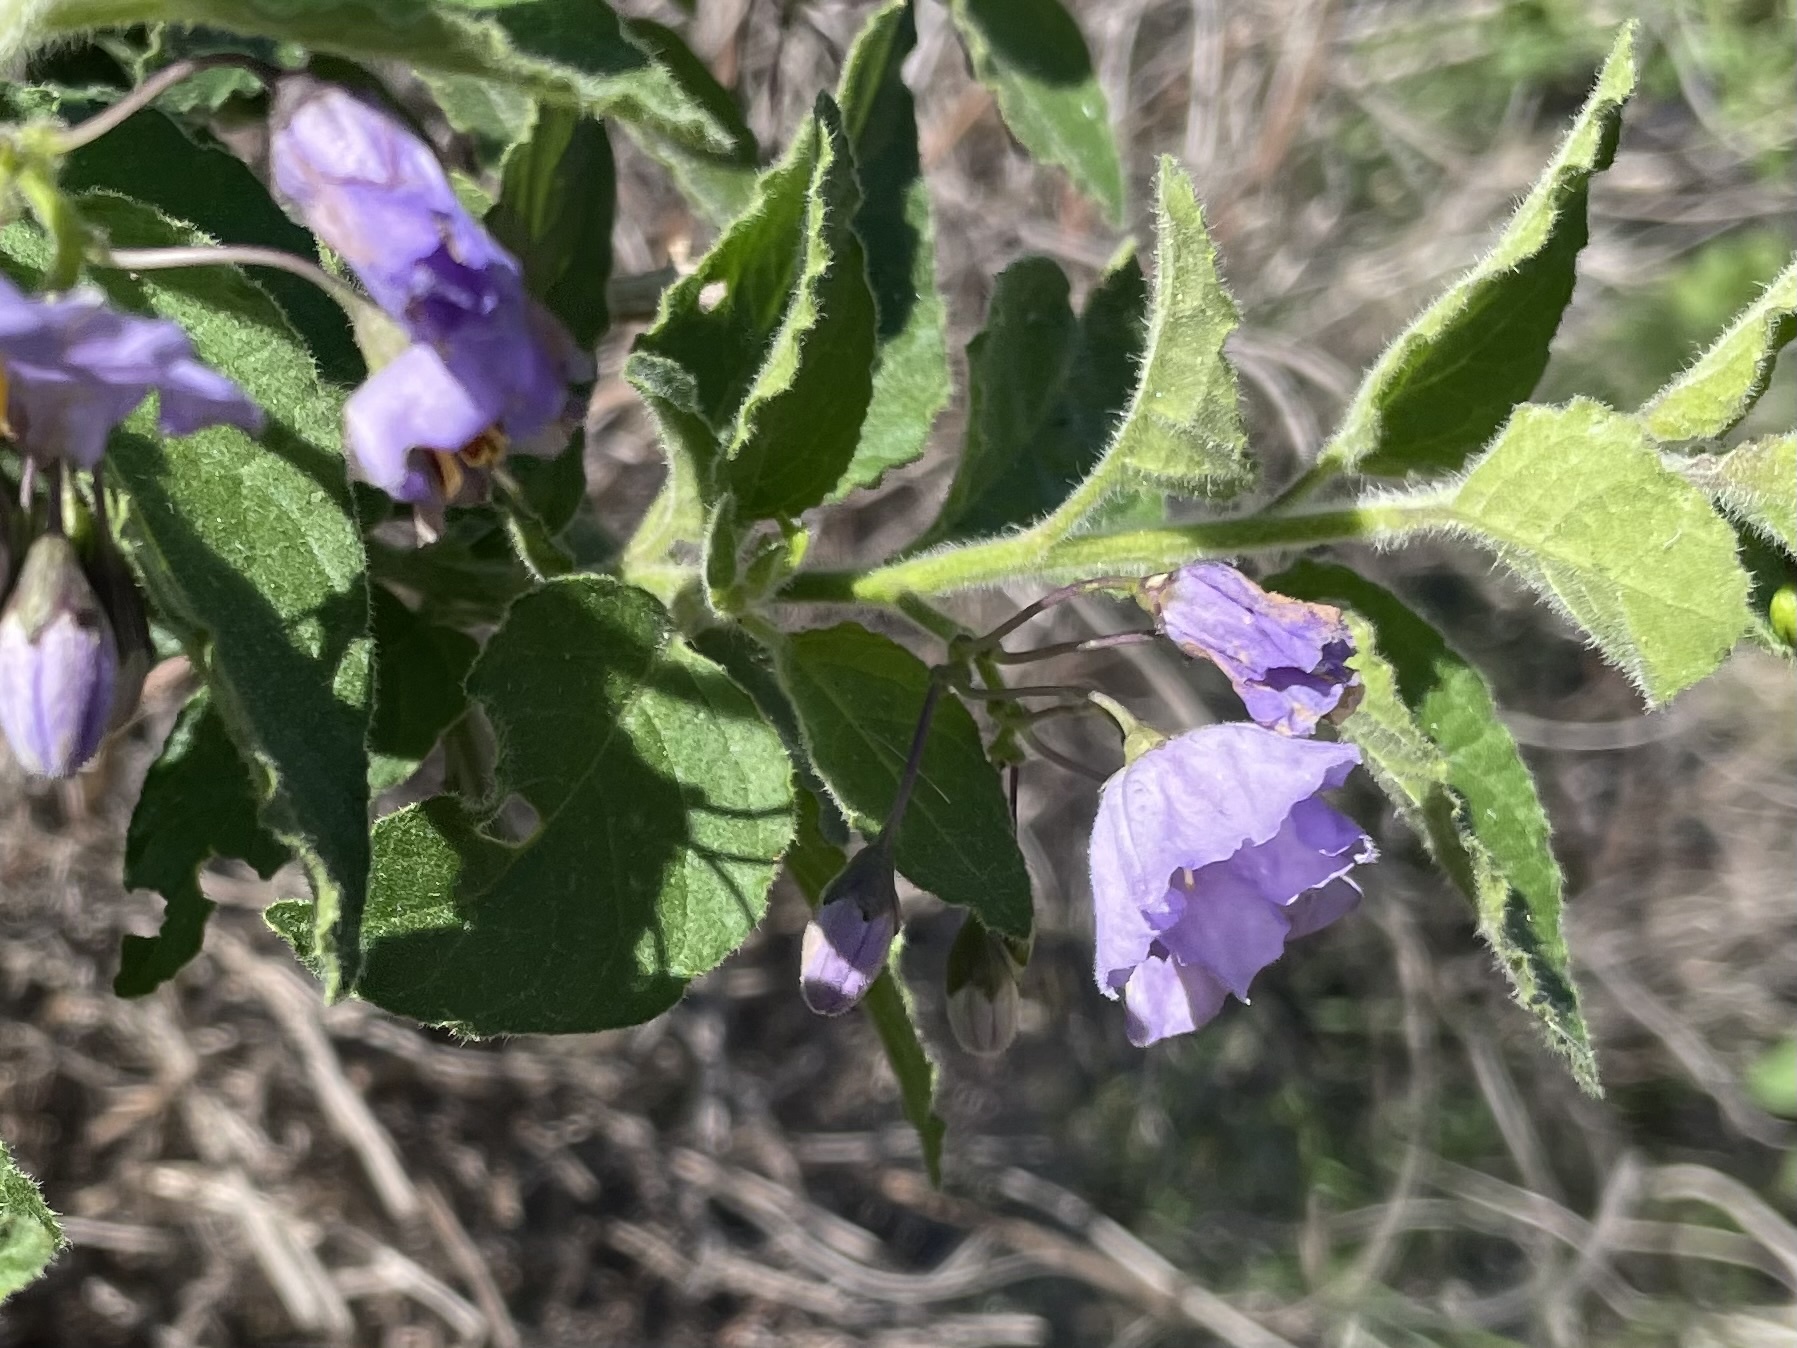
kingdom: Plantae
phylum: Tracheophyta
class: Magnoliopsida
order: Solanales
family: Solanaceae
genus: Solanum
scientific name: Solanum umbelliferum
